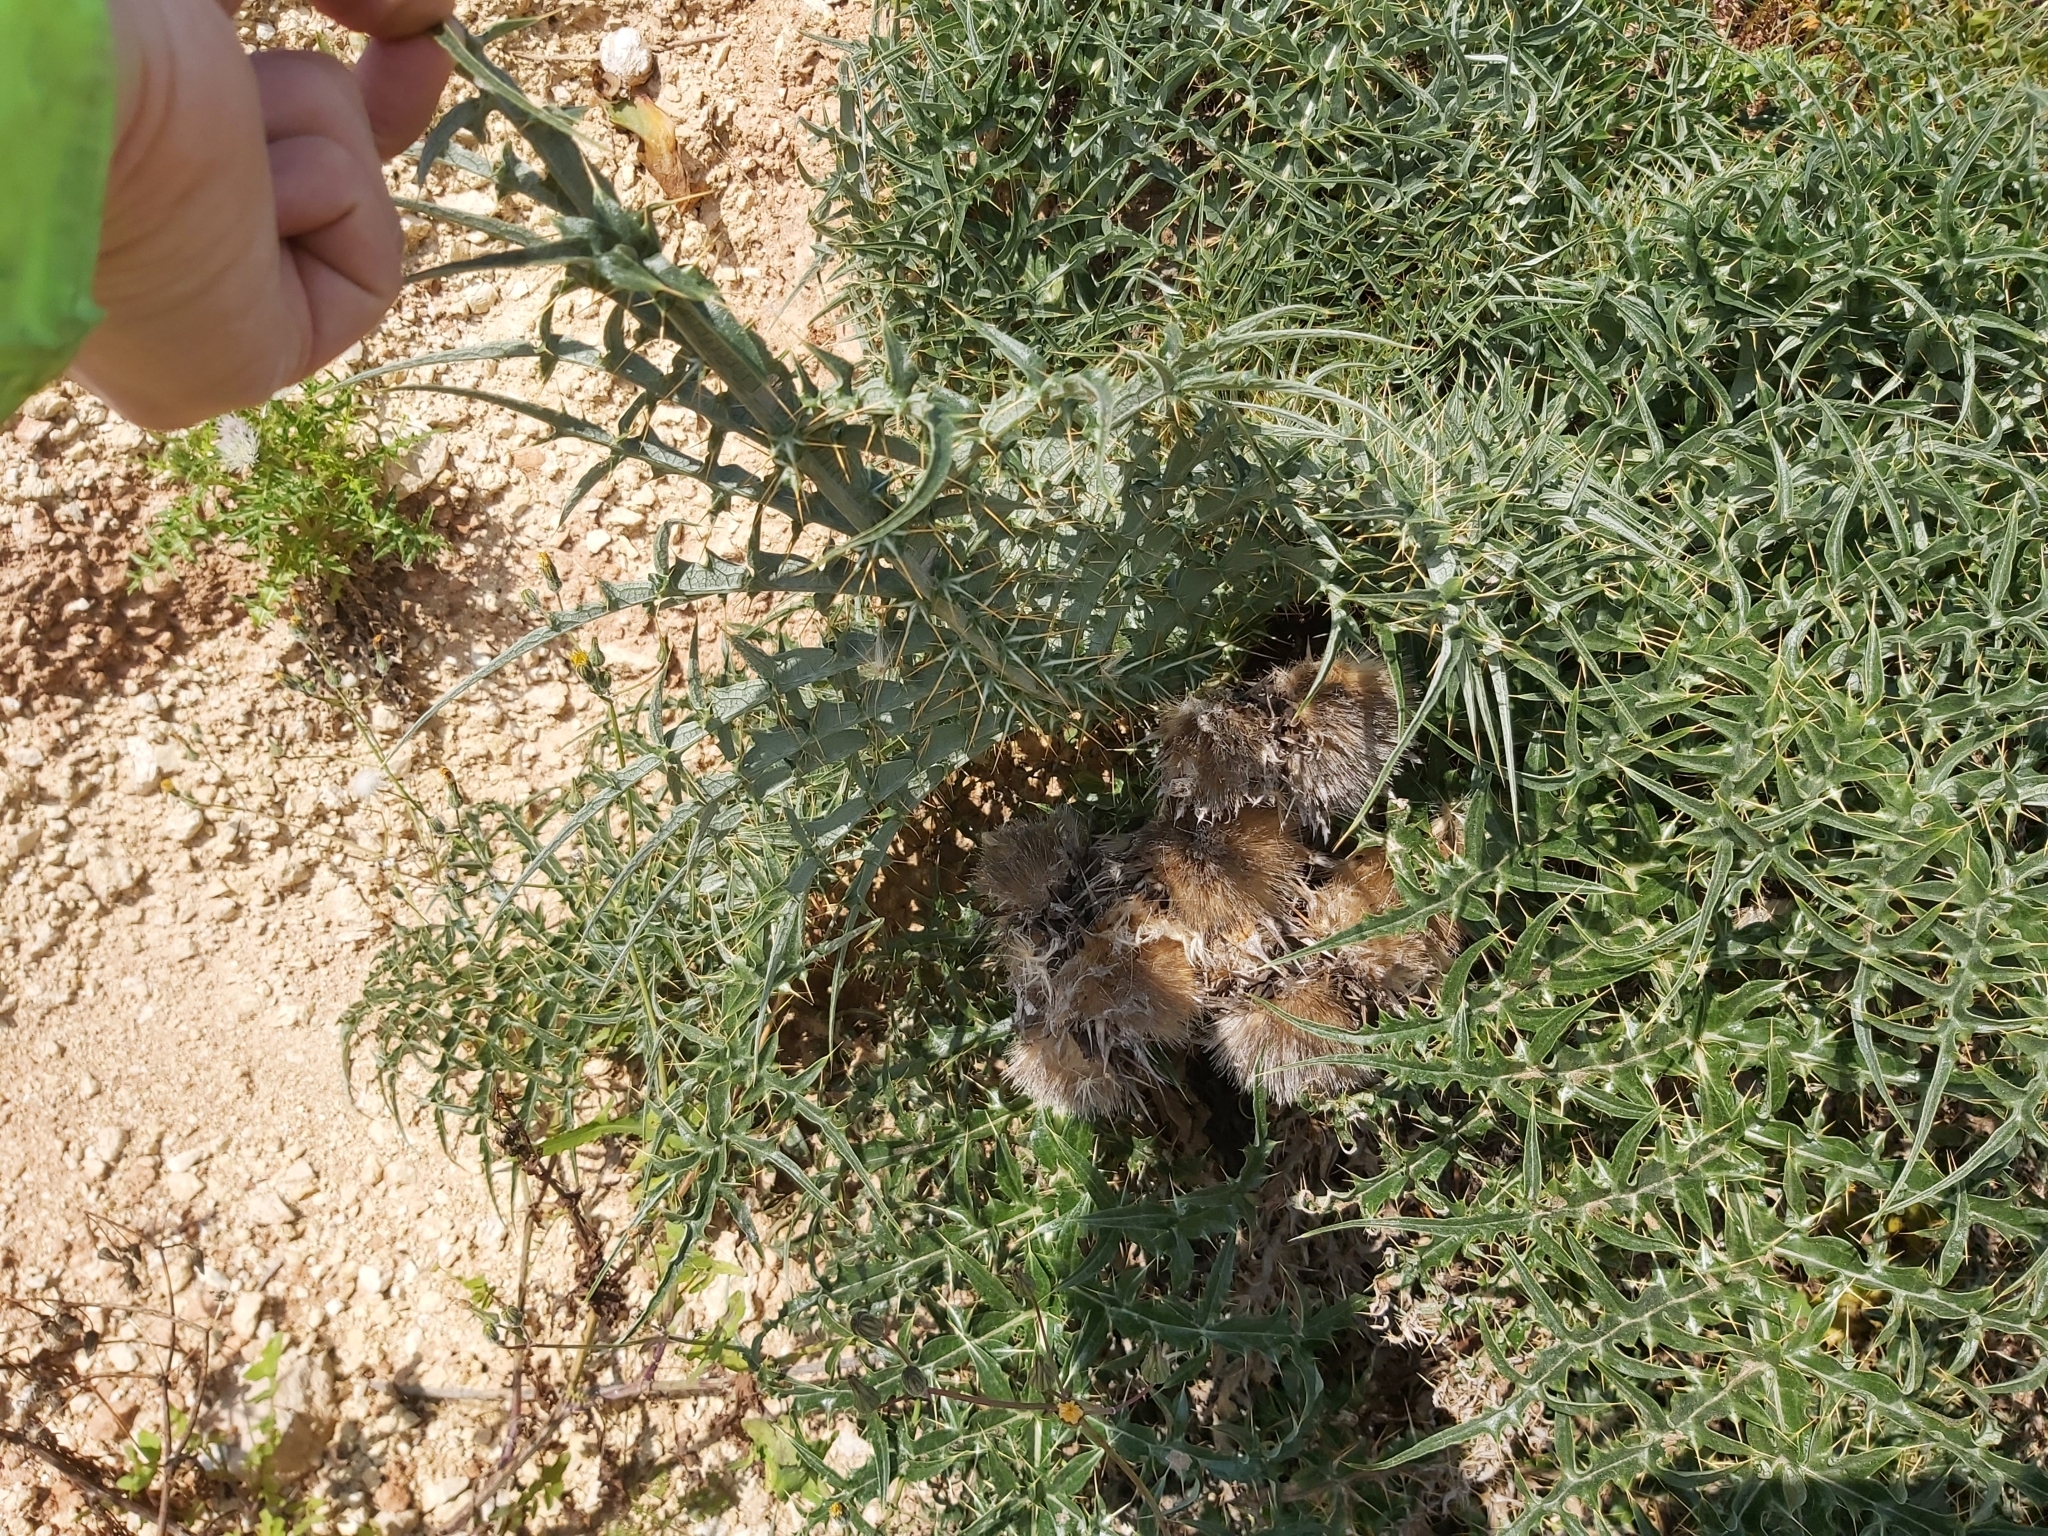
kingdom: Plantae
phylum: Tracheophyta
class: Magnoliopsida
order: Asterales
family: Asteraceae
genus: Cynara
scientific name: Cynara cardunculus
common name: Globe artichoke
